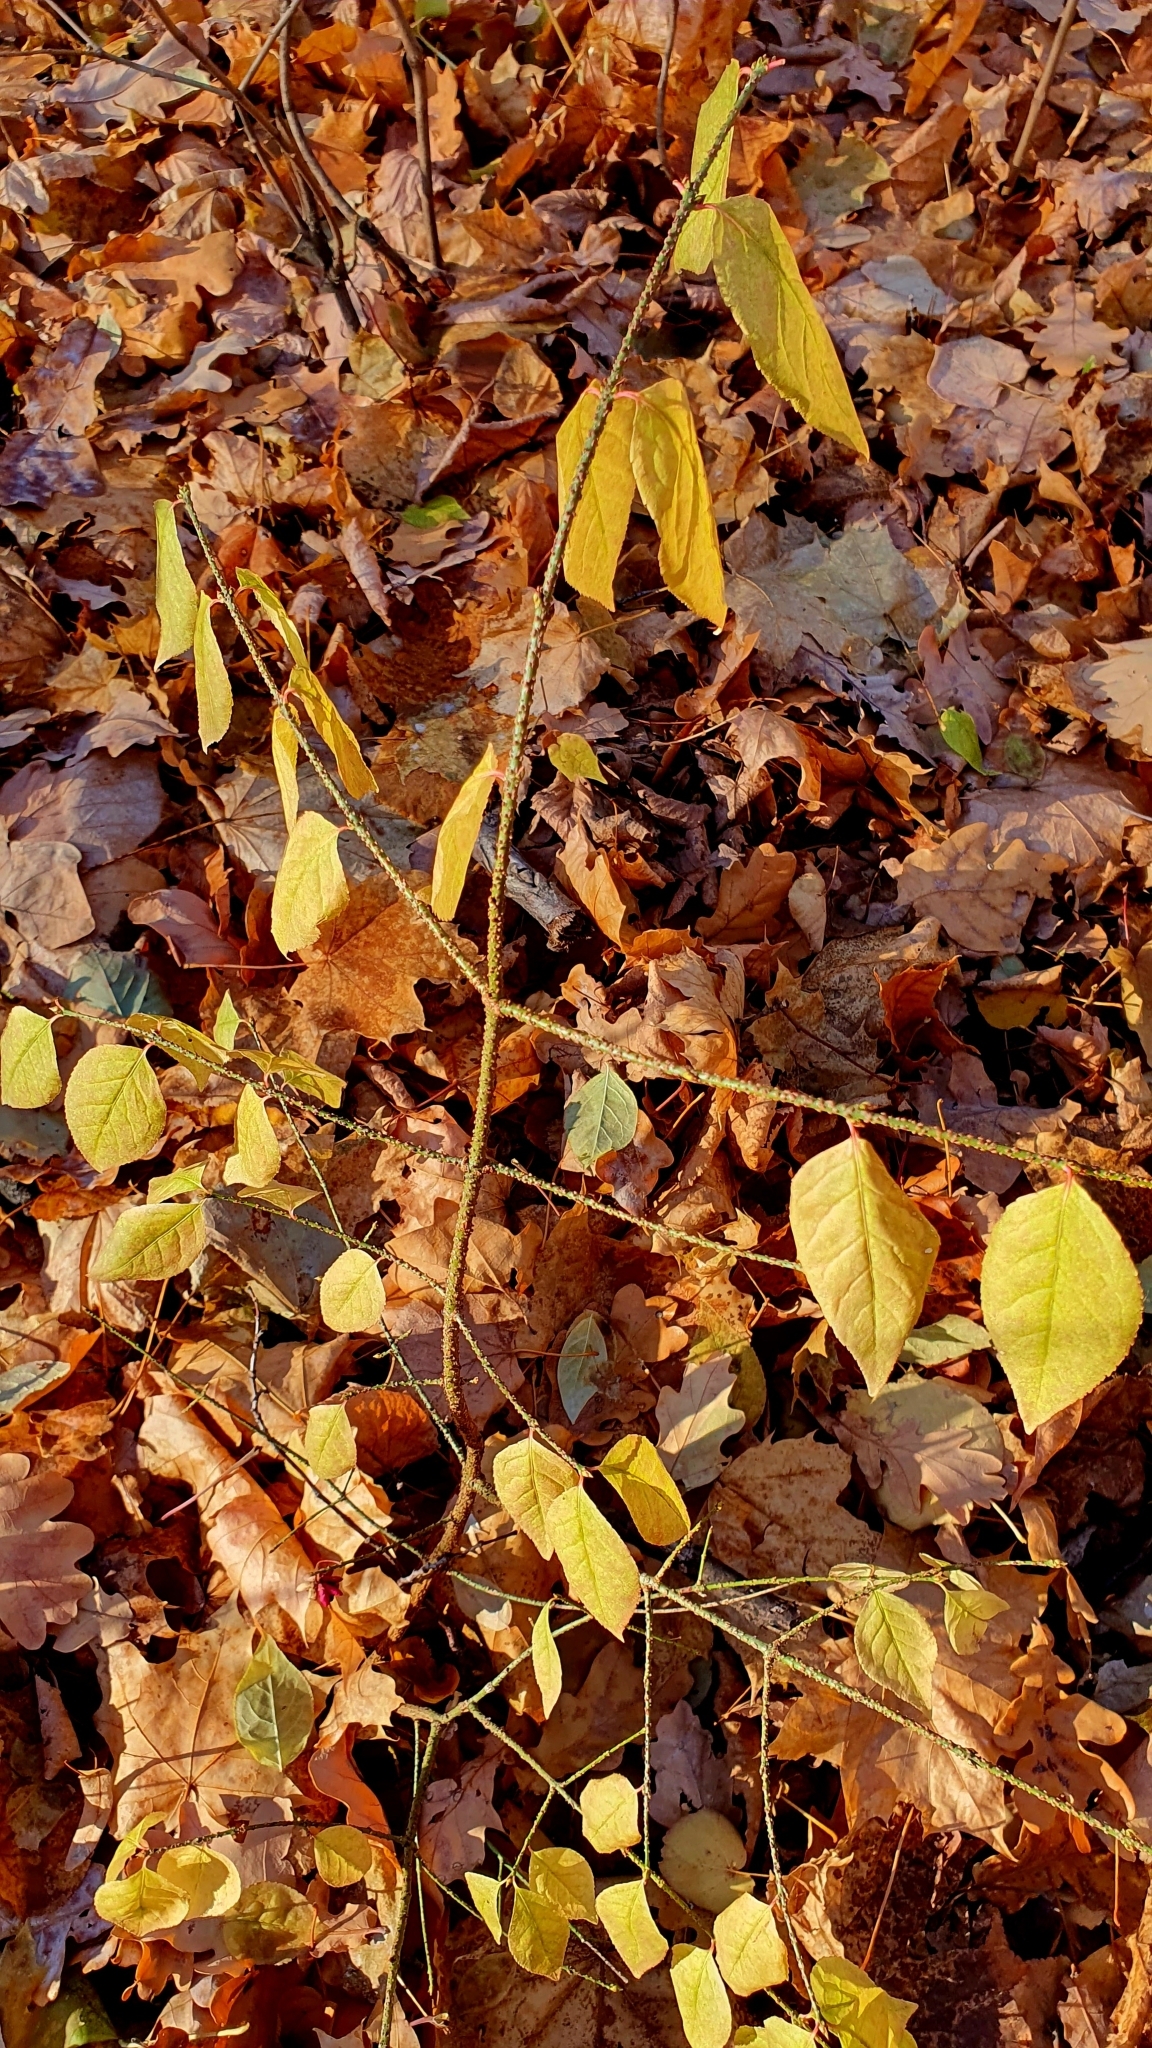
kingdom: Plantae
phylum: Tracheophyta
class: Magnoliopsida
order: Celastrales
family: Celastraceae
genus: Euonymus
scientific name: Euonymus verrucosus
